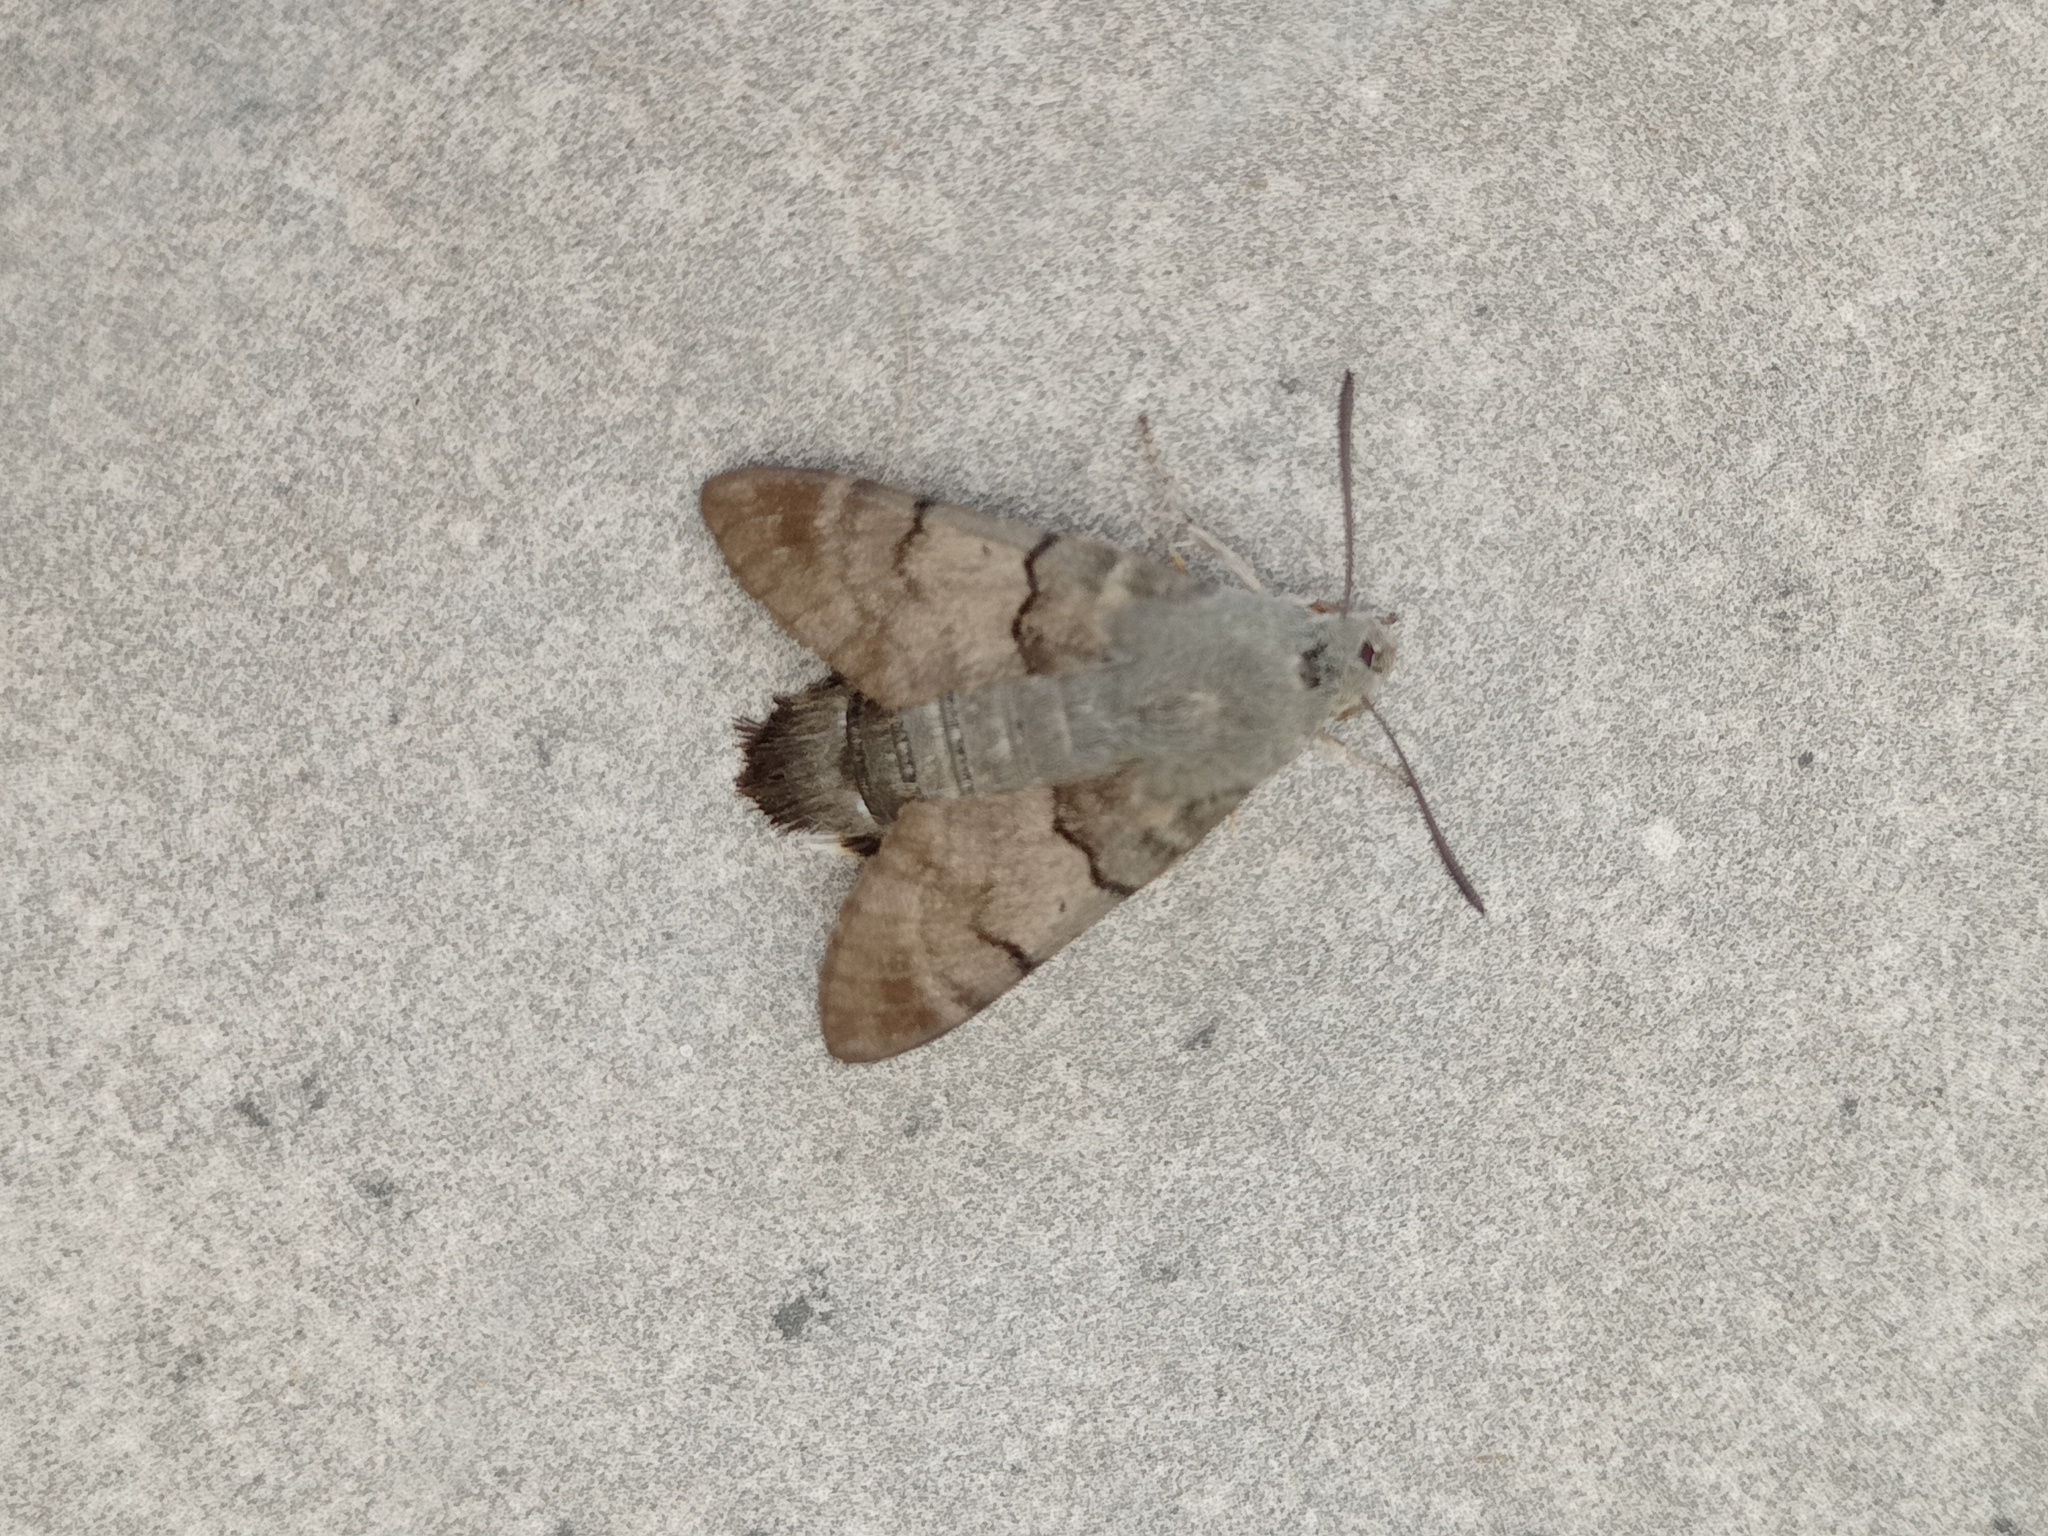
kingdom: Animalia
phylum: Arthropoda
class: Insecta
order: Lepidoptera
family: Sphingidae
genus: Macroglossum
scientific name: Macroglossum stellatarum
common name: Humming-bird hawk-moth
